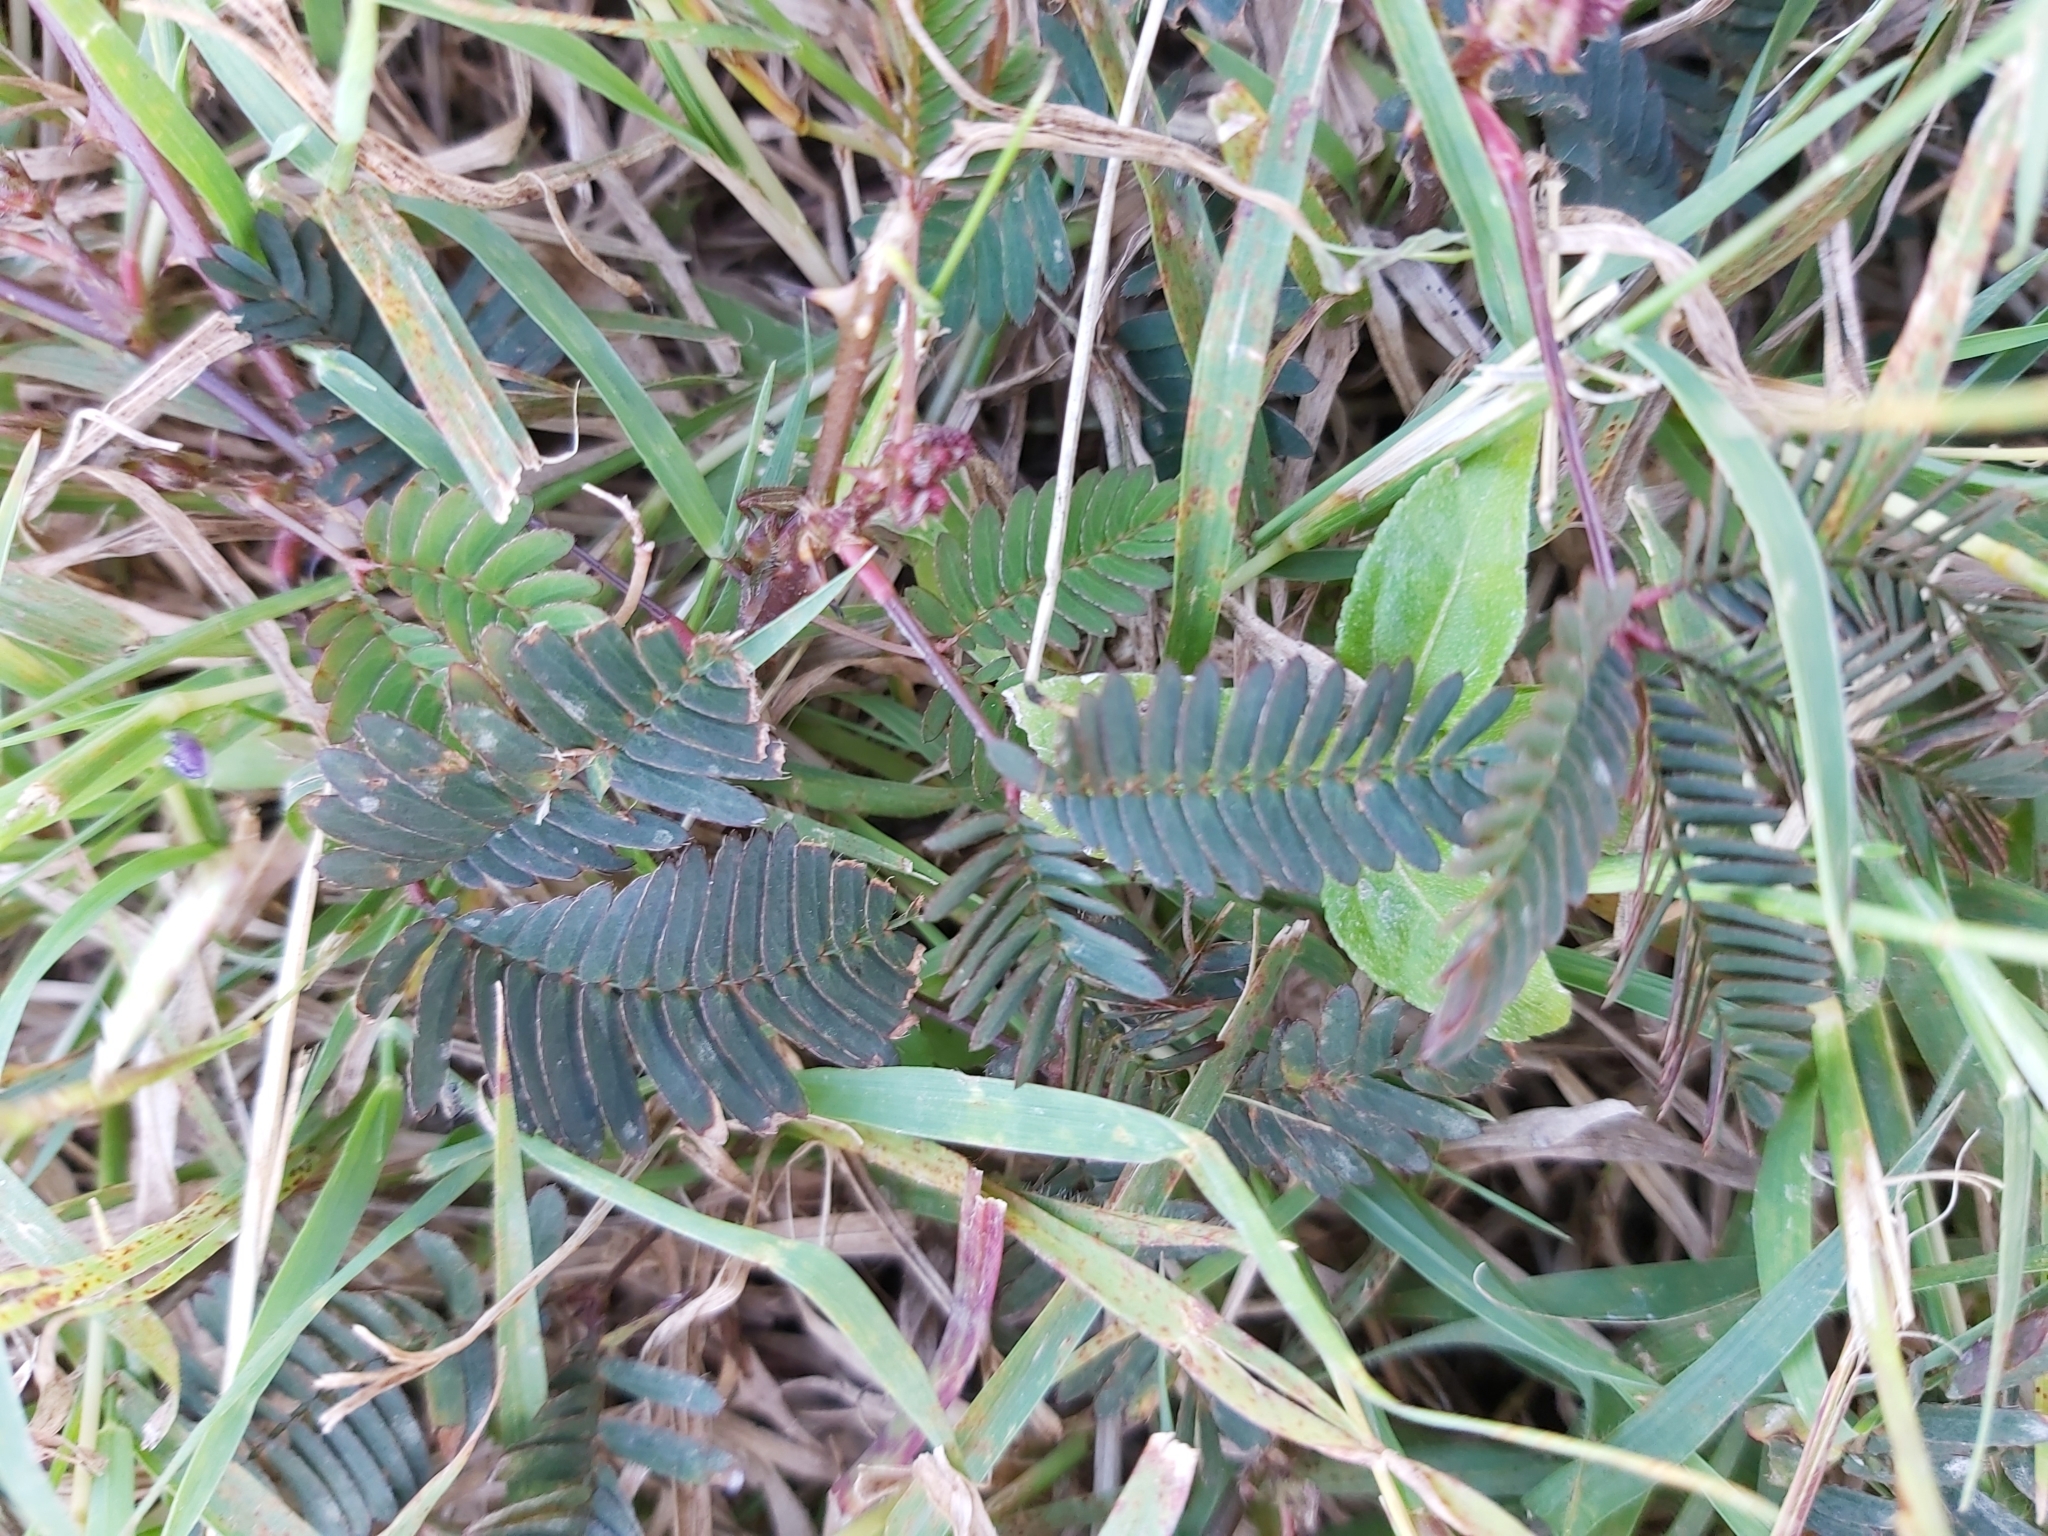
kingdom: Plantae
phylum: Tracheophyta
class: Magnoliopsida
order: Fabales
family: Fabaceae
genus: Mimosa
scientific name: Mimosa pudica
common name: Sensitive plant
